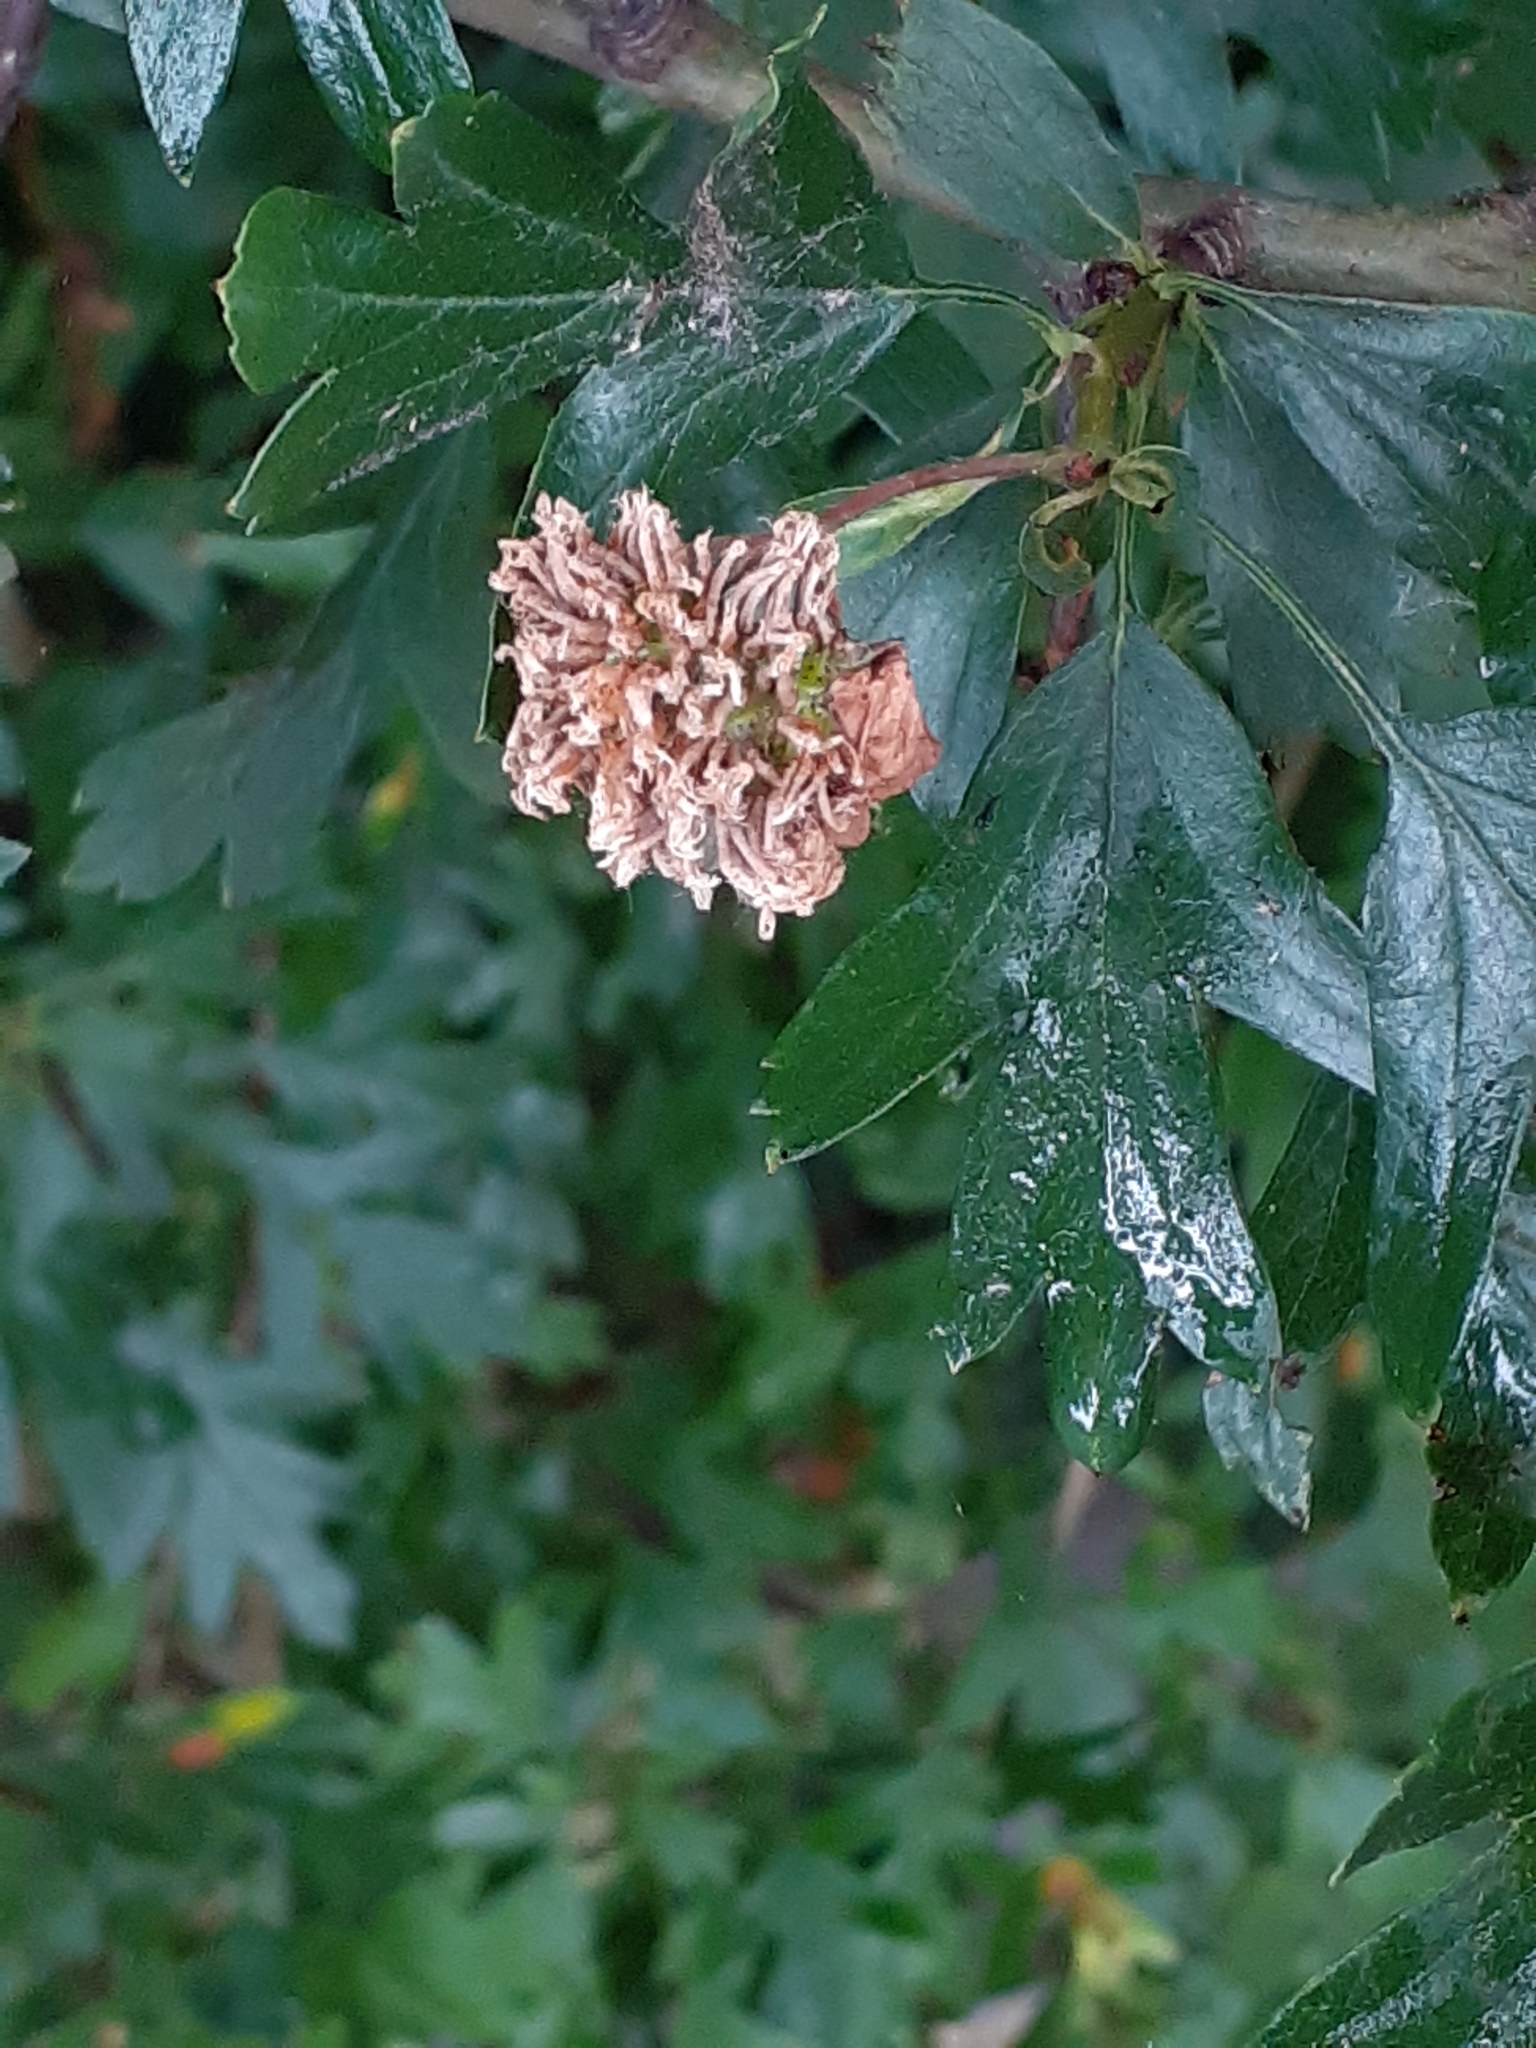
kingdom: Fungi
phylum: Basidiomycota
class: Pucciniomycetes
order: Pucciniales
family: Gymnosporangiaceae
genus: Gymnosporangium
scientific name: Gymnosporangium clavariiforme
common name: Tongues of fire
